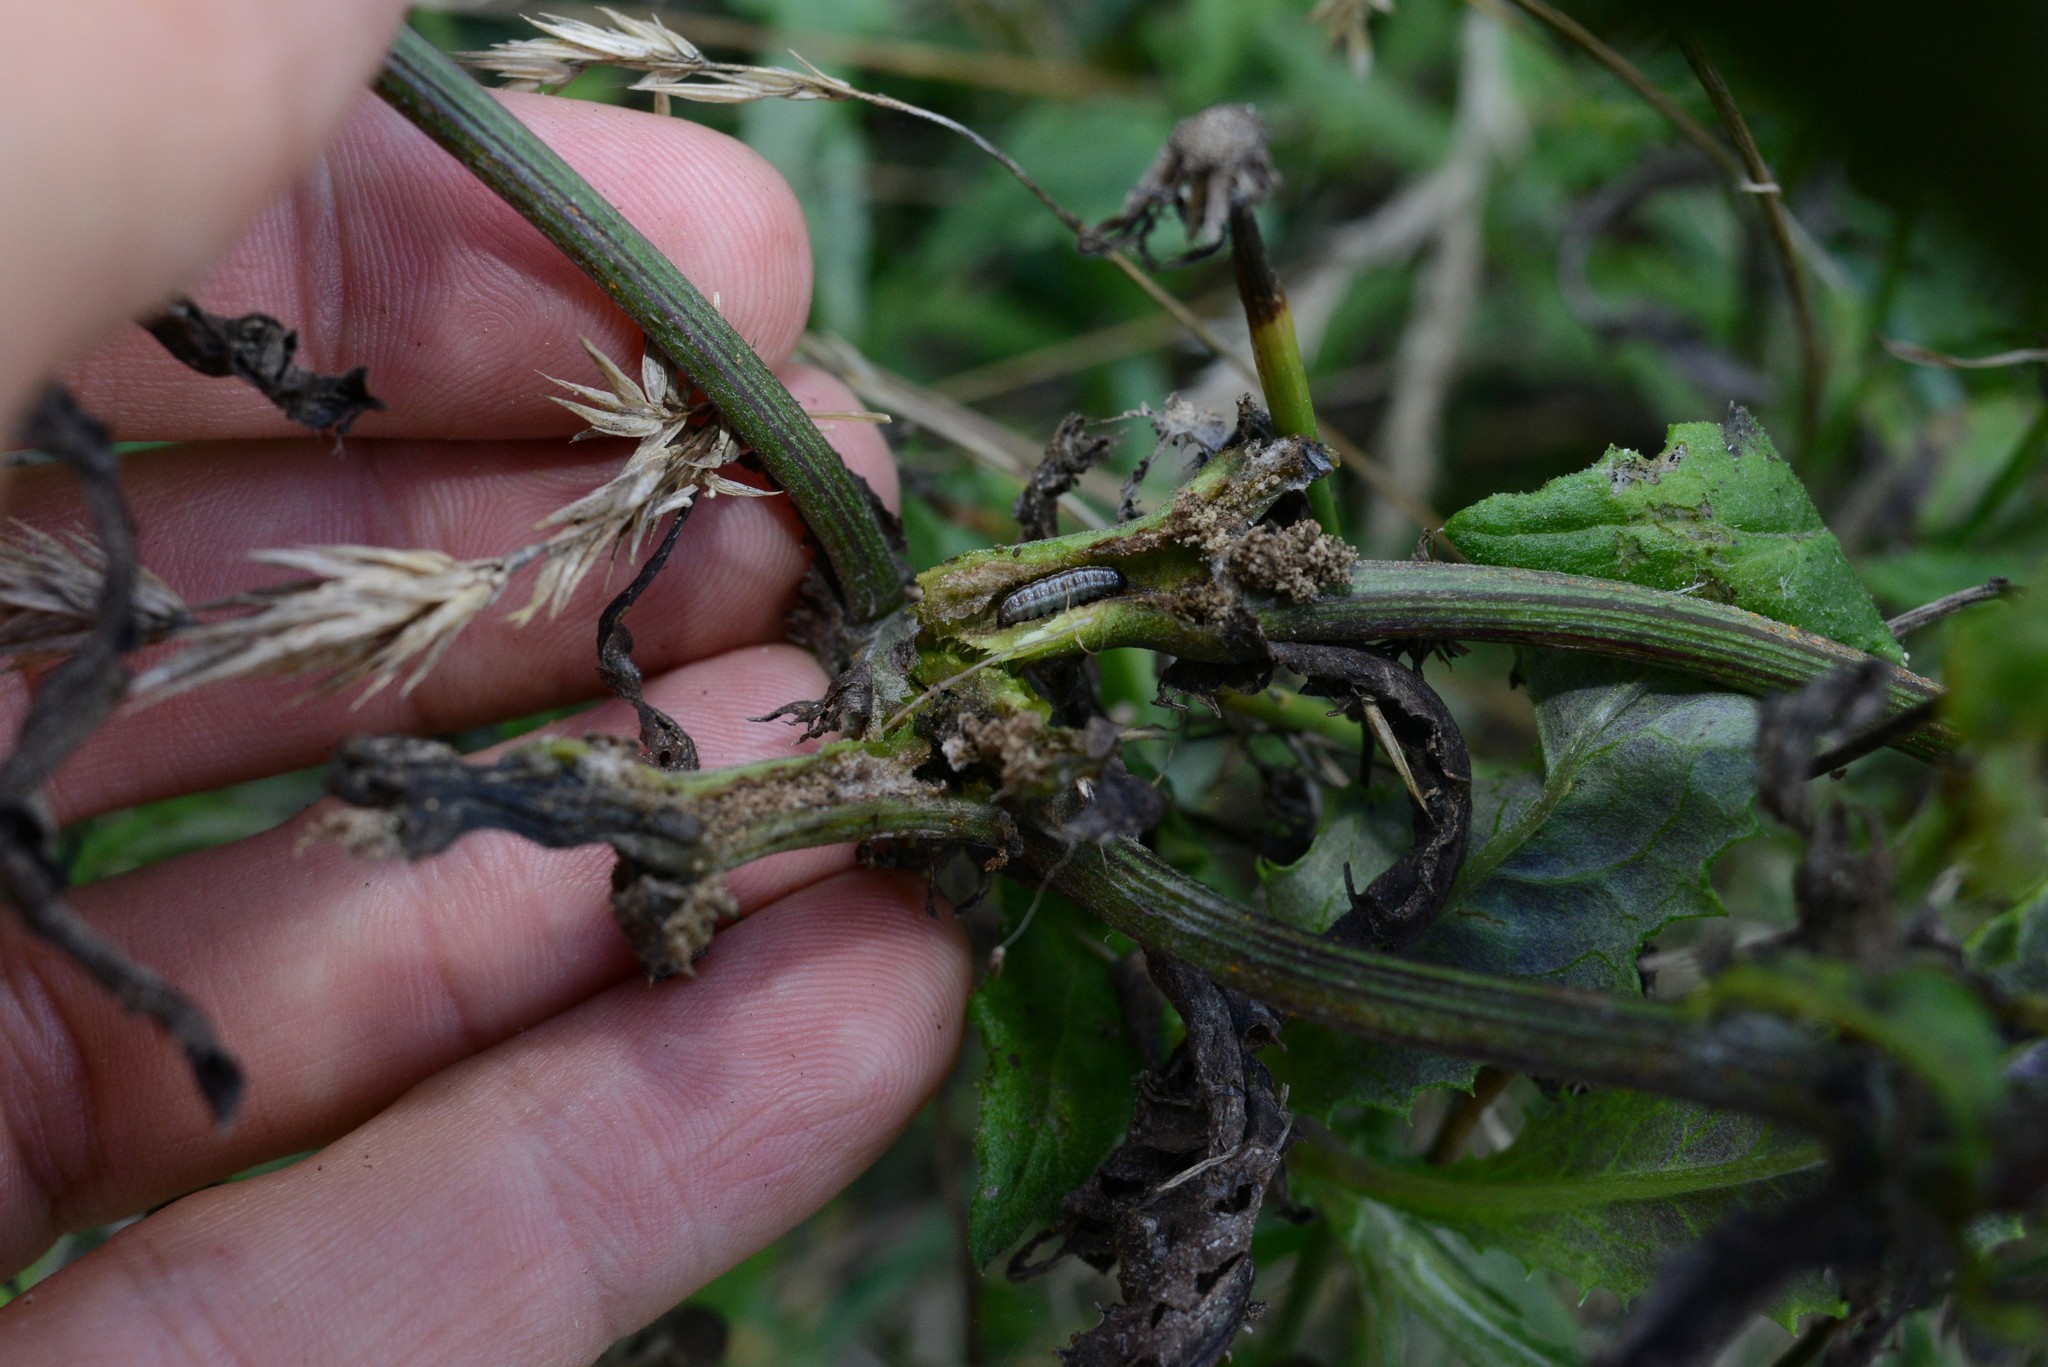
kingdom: Animalia
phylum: Arthropoda
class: Insecta
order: Lepidoptera
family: Pyralidae
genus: Patagoniodes
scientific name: Patagoniodes farinaria
